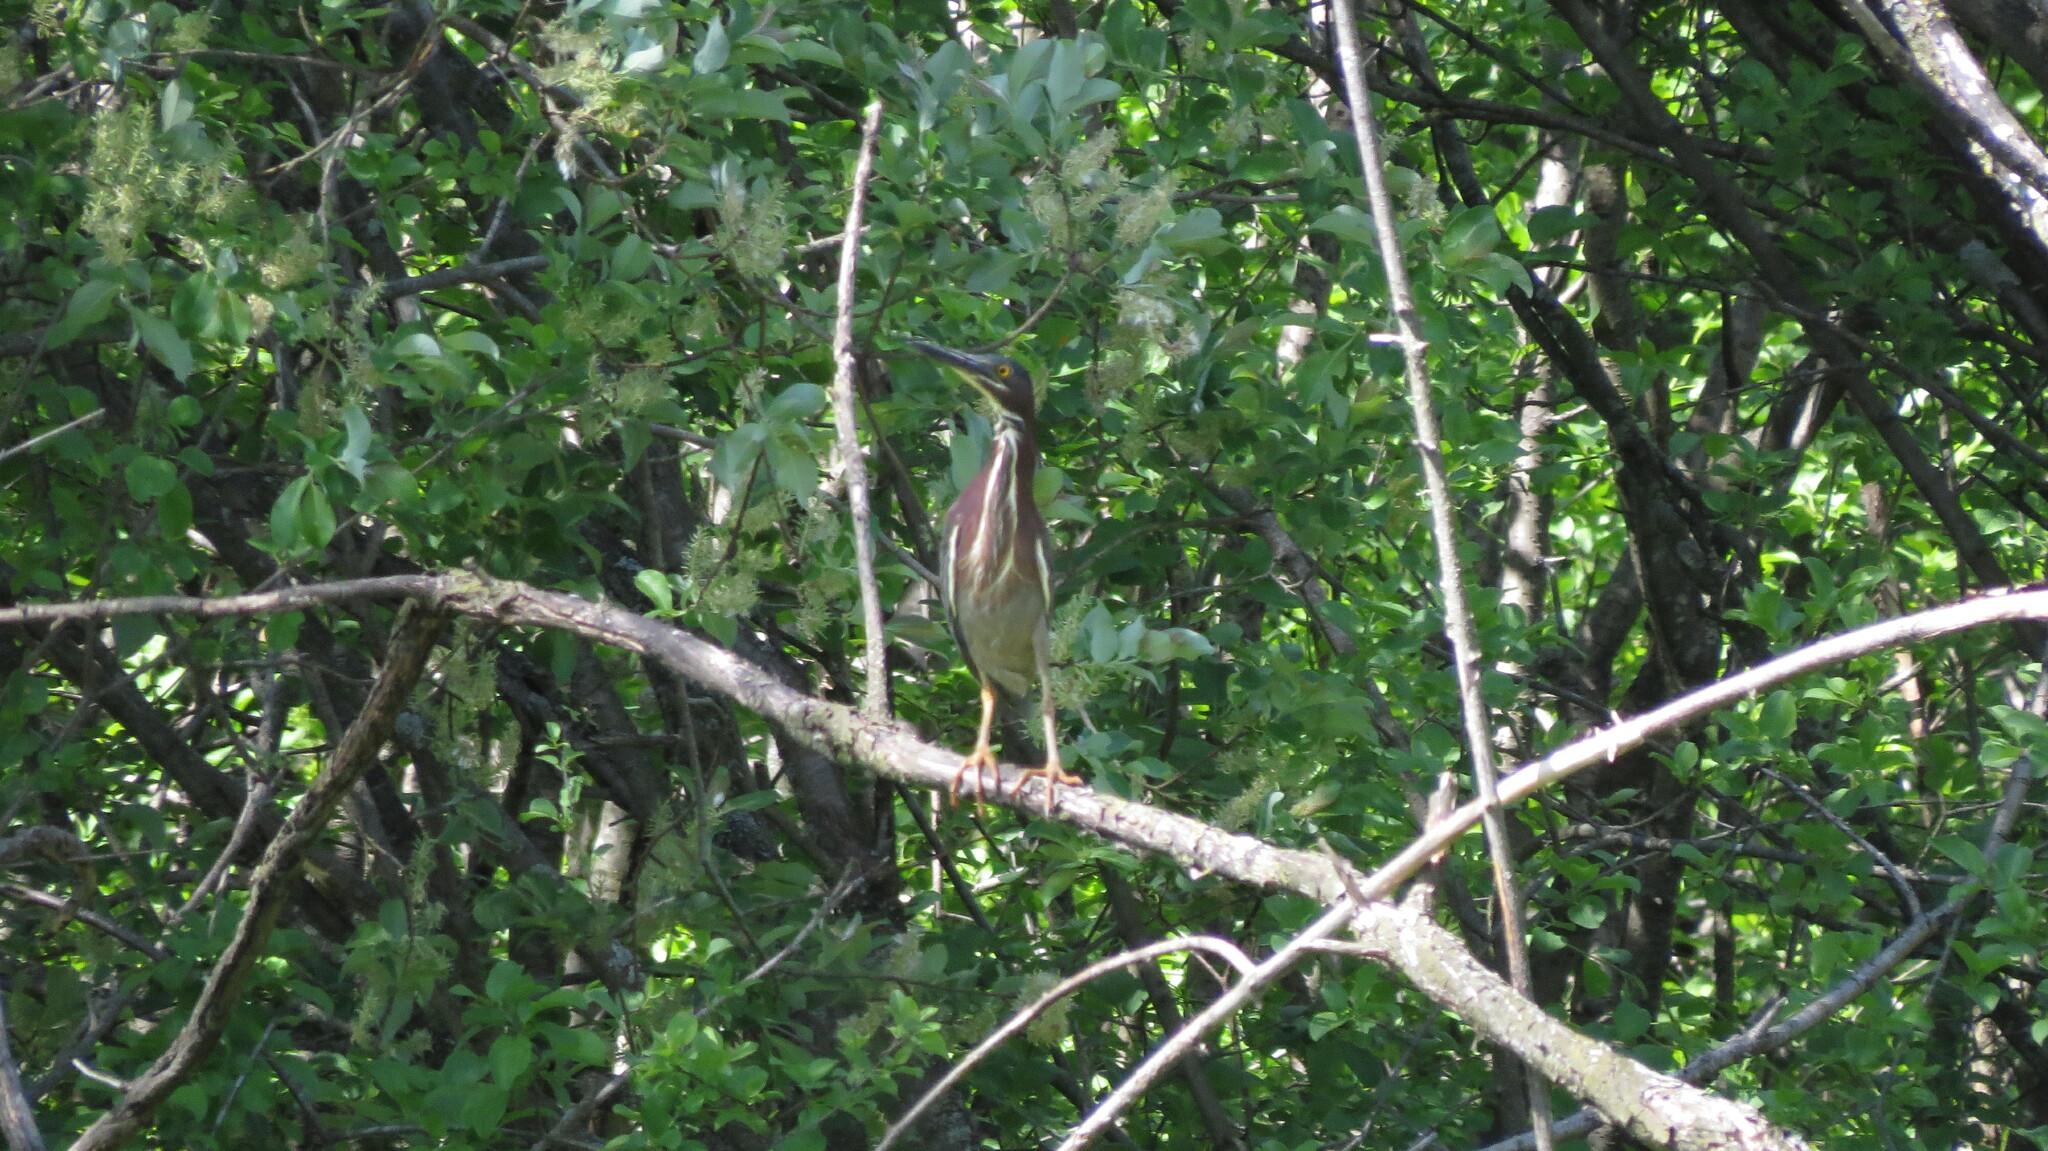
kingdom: Animalia
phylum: Chordata
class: Aves
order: Pelecaniformes
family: Ardeidae
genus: Butorides
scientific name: Butorides virescens
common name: Green heron
